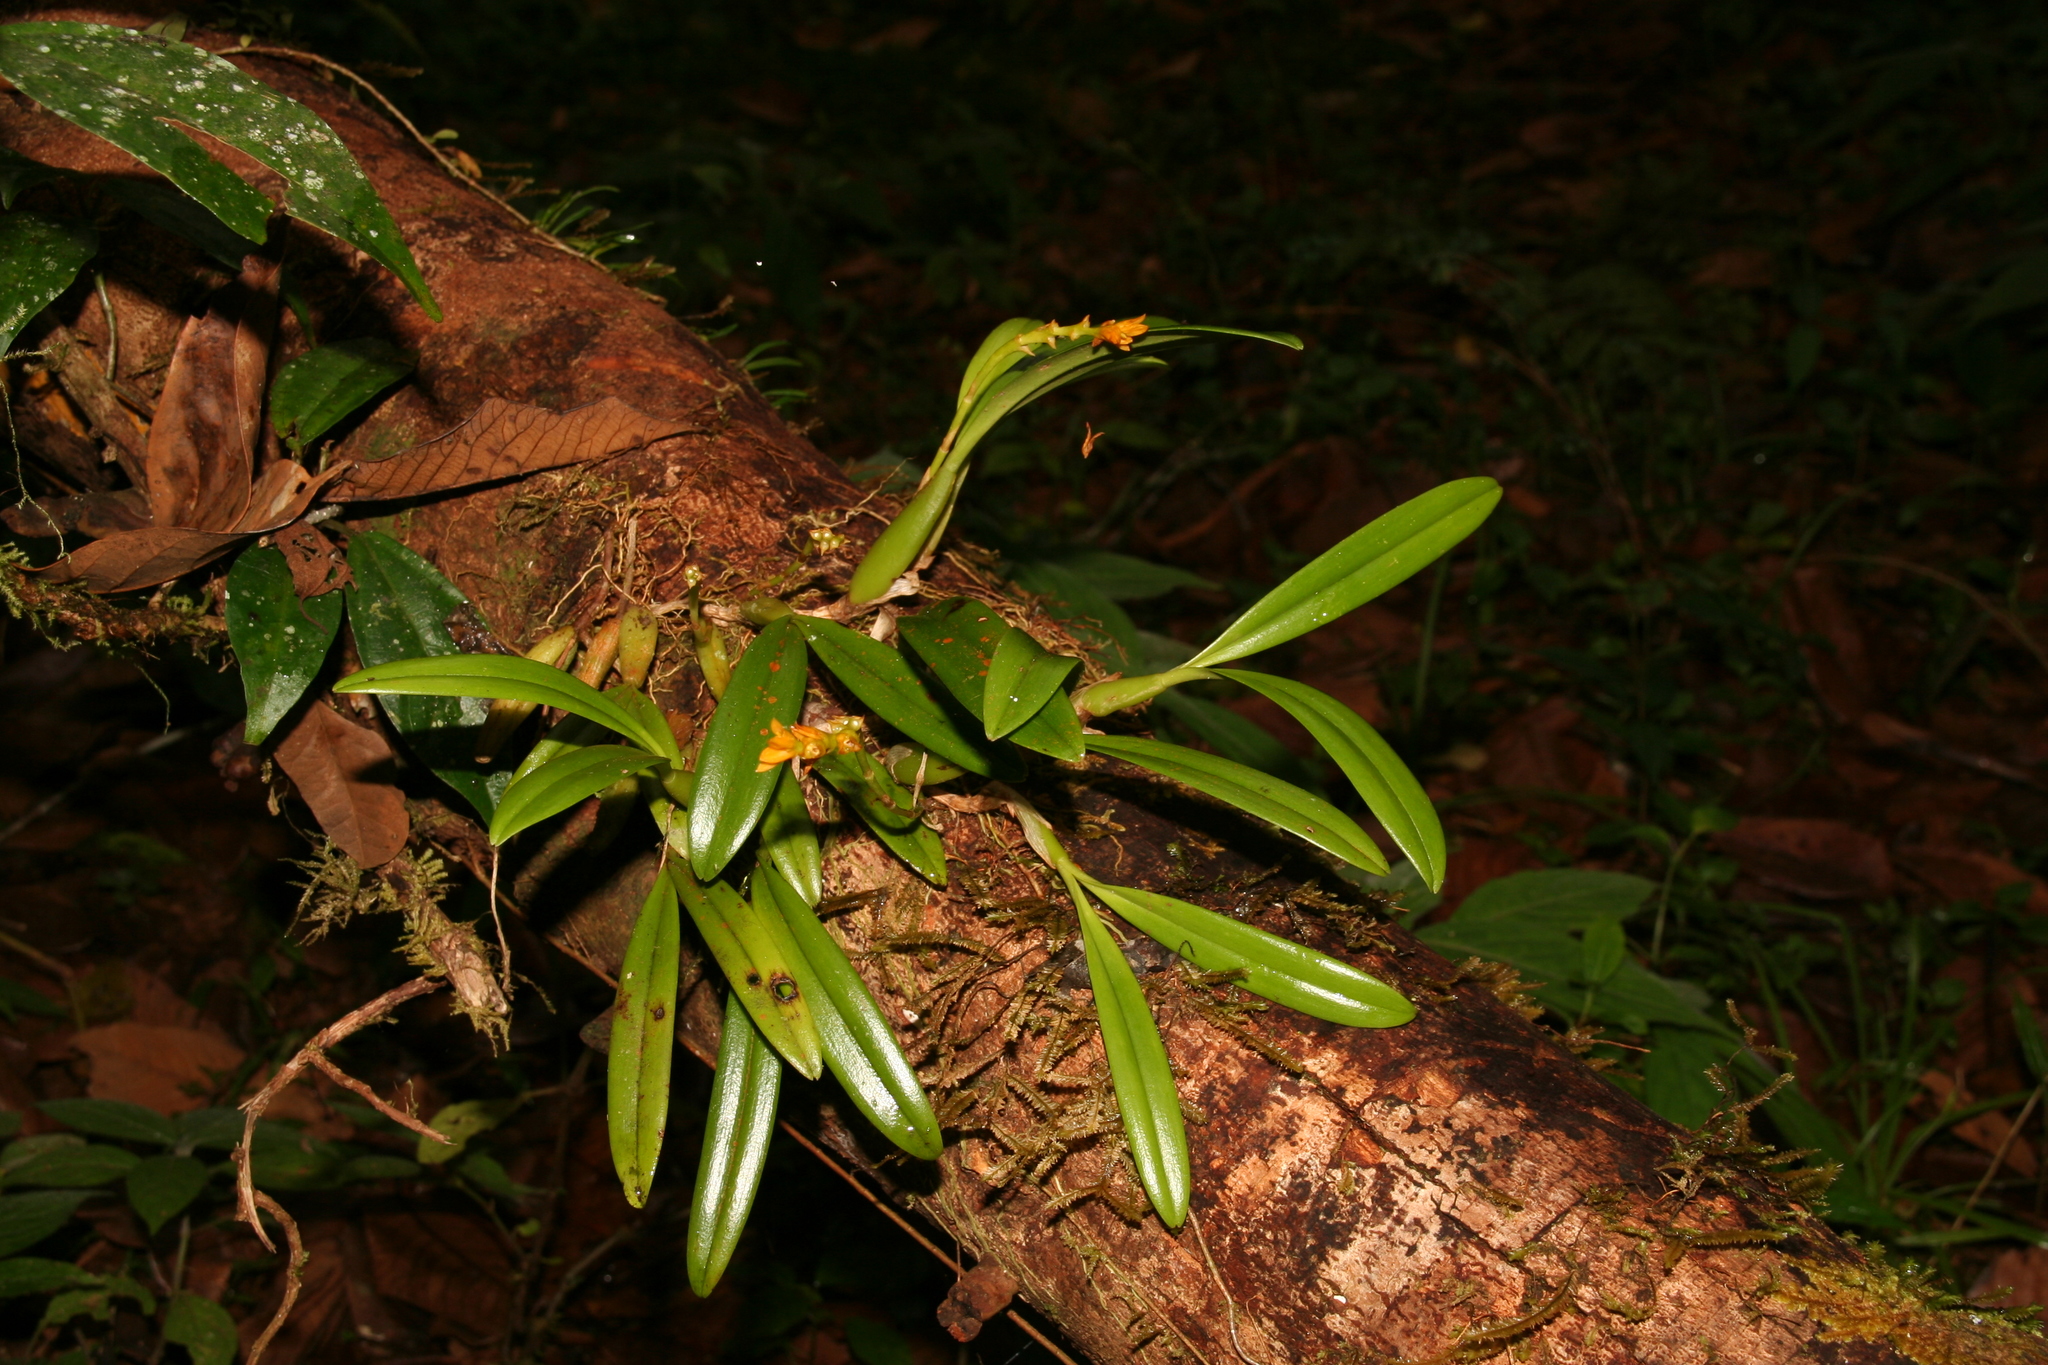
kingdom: Plantae
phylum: Tracheophyta
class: Liliopsida
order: Asparagales
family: Orchidaceae
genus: Bulbophyllum
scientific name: Bulbophyllum auriflorum
